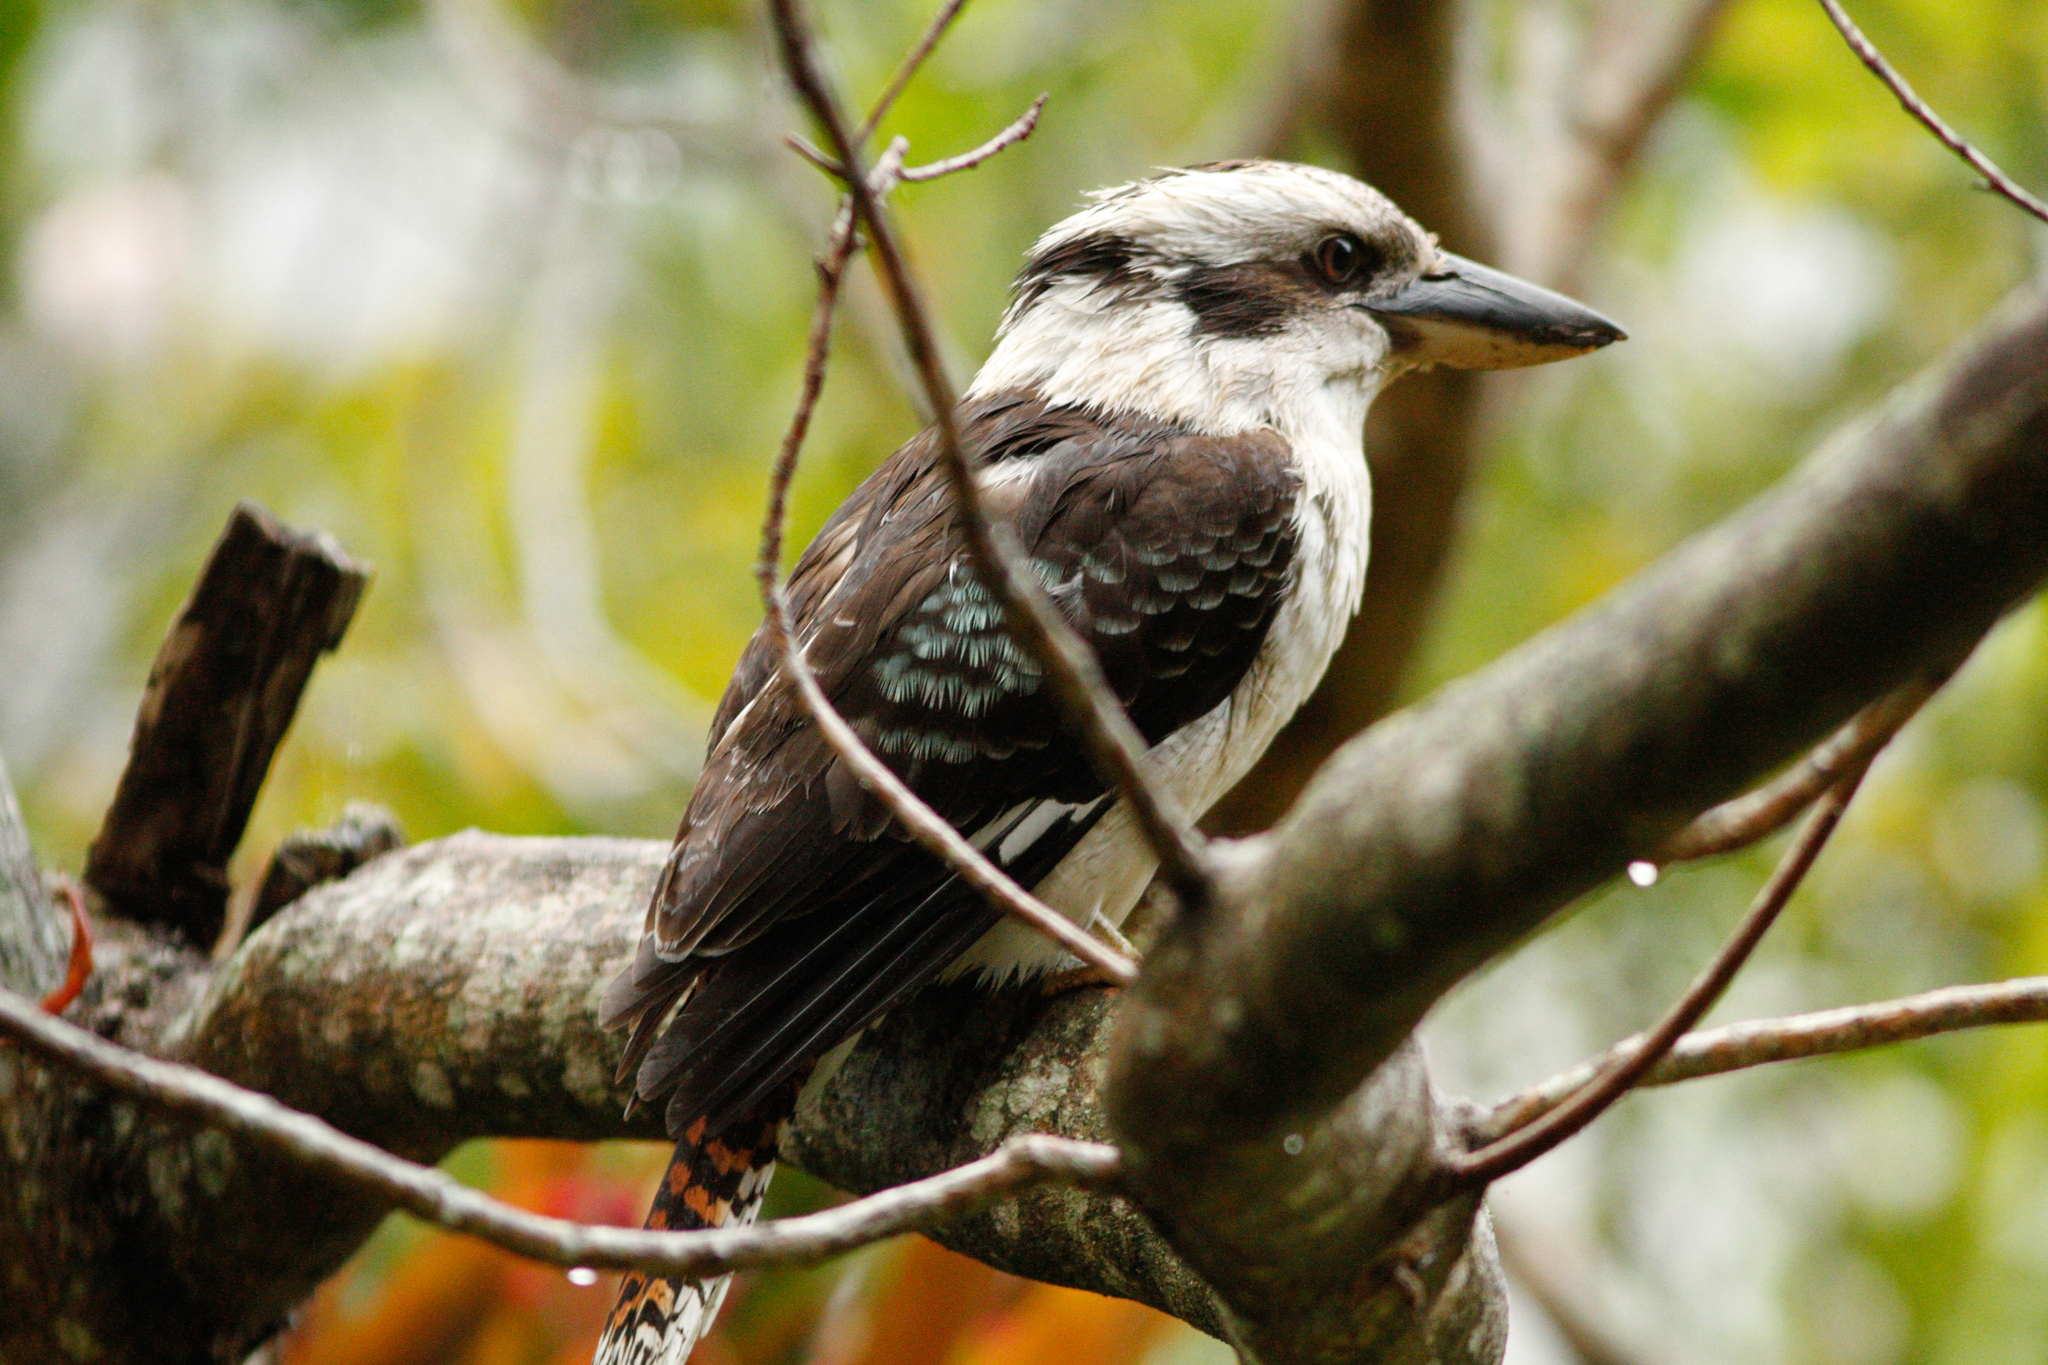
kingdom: Animalia
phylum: Chordata
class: Aves
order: Coraciiformes
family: Alcedinidae
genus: Dacelo
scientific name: Dacelo novaeguineae
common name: Laughing kookaburra
